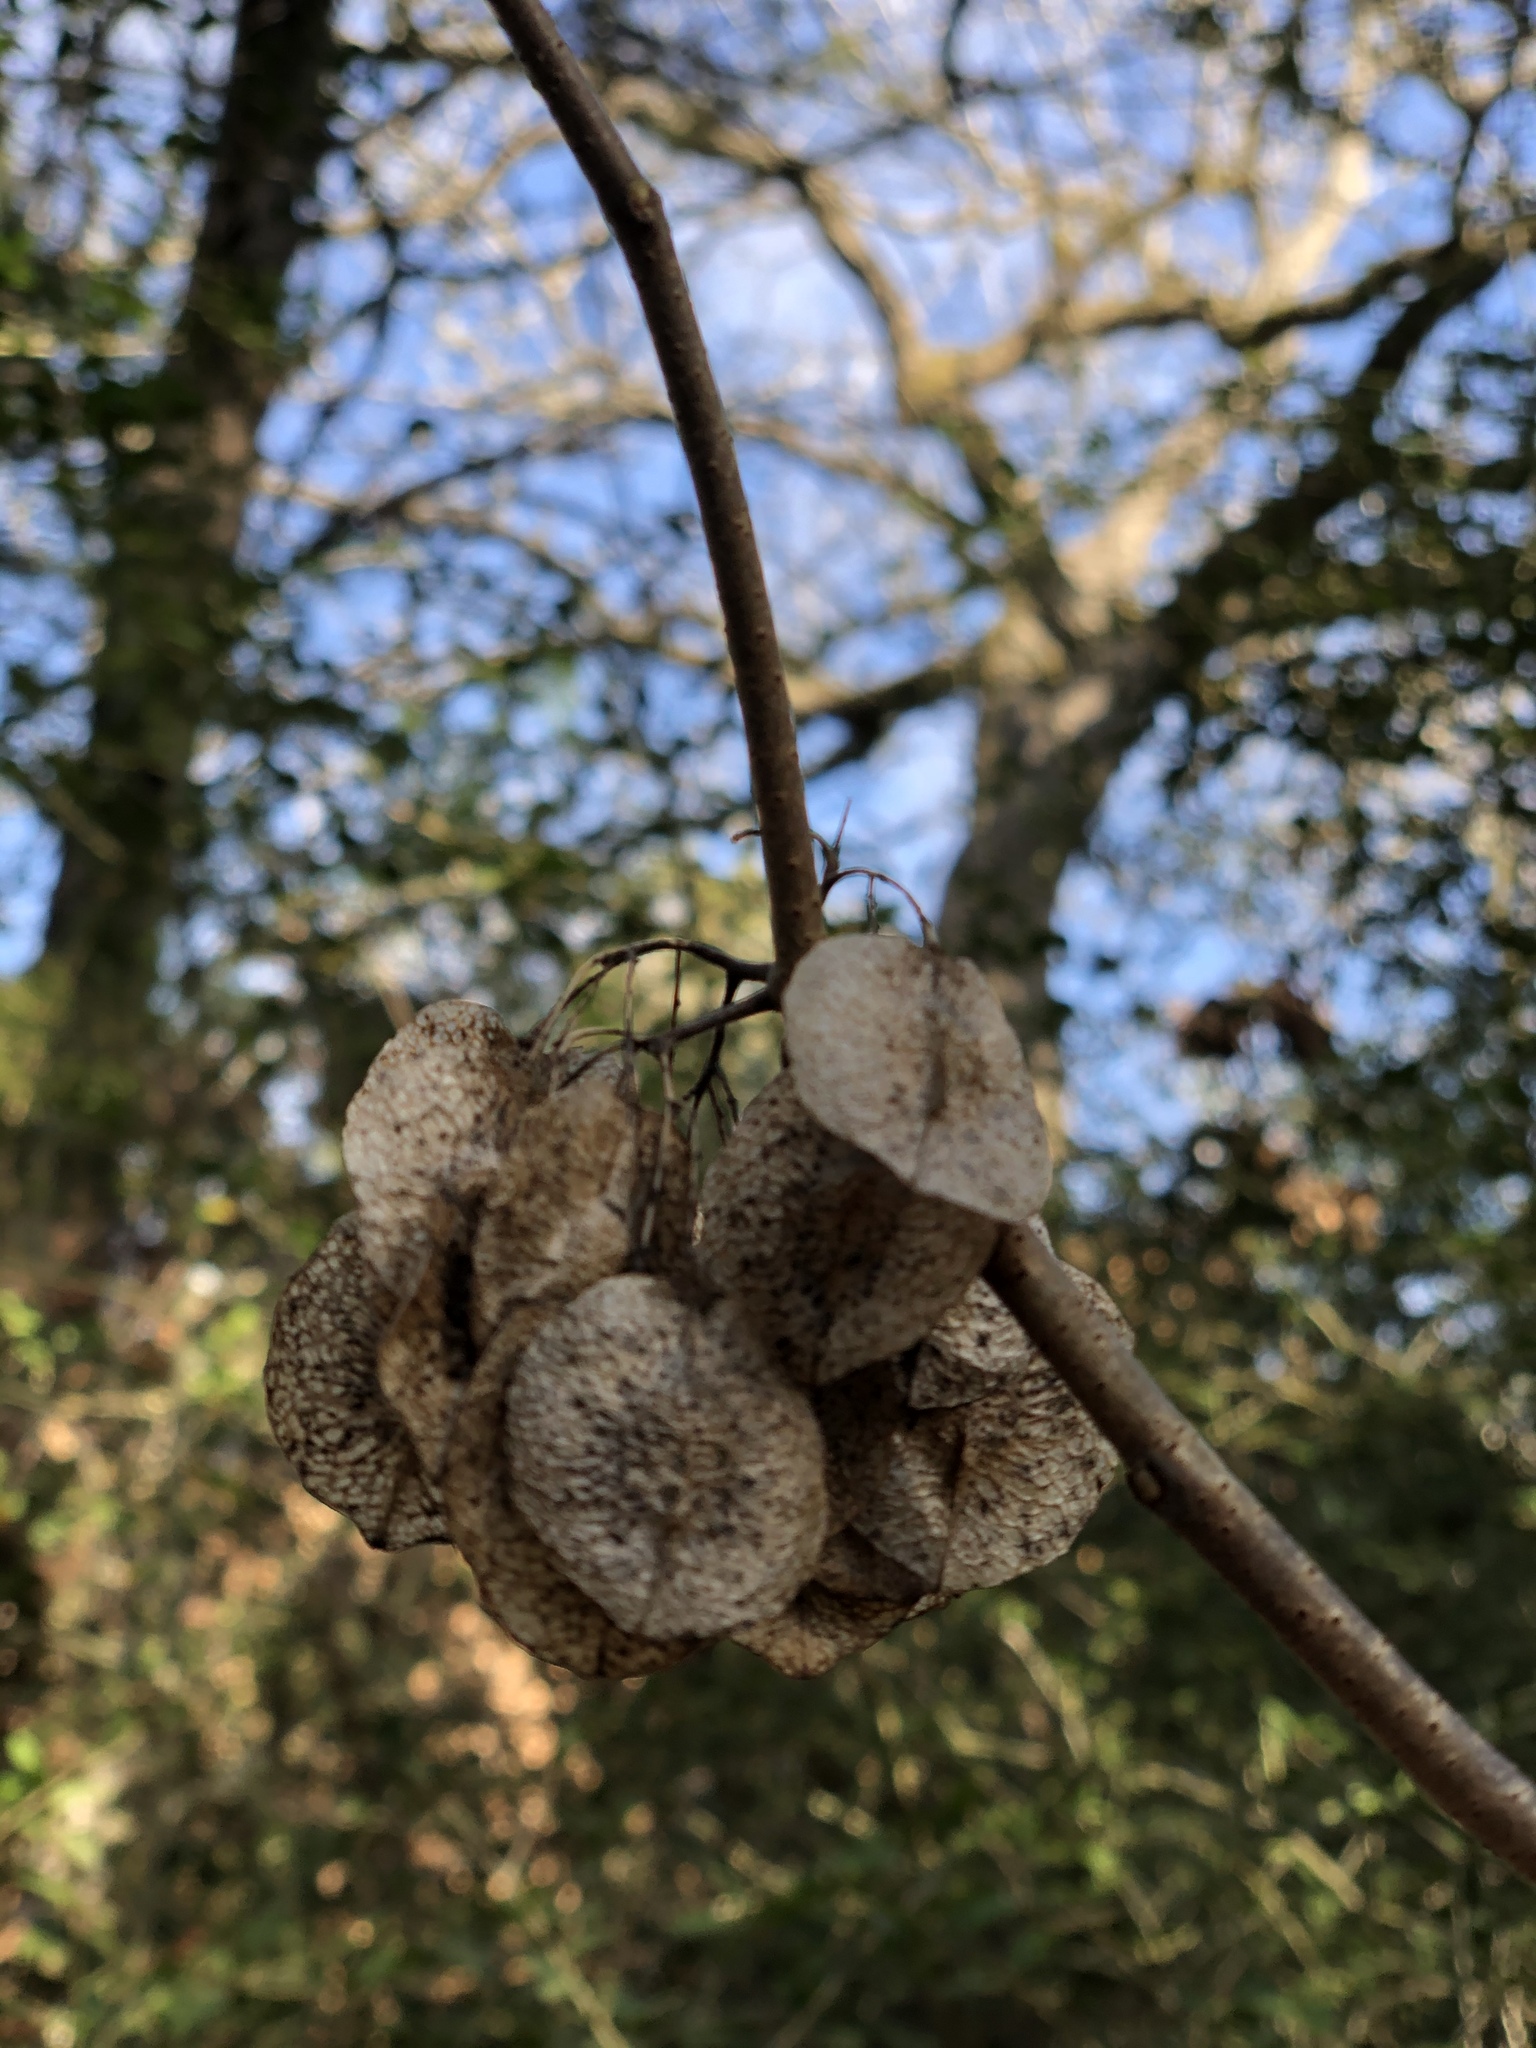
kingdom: Plantae
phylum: Tracheophyta
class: Magnoliopsida
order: Sapindales
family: Rutaceae
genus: Ptelea
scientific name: Ptelea trifoliata
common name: Common hop-tree
